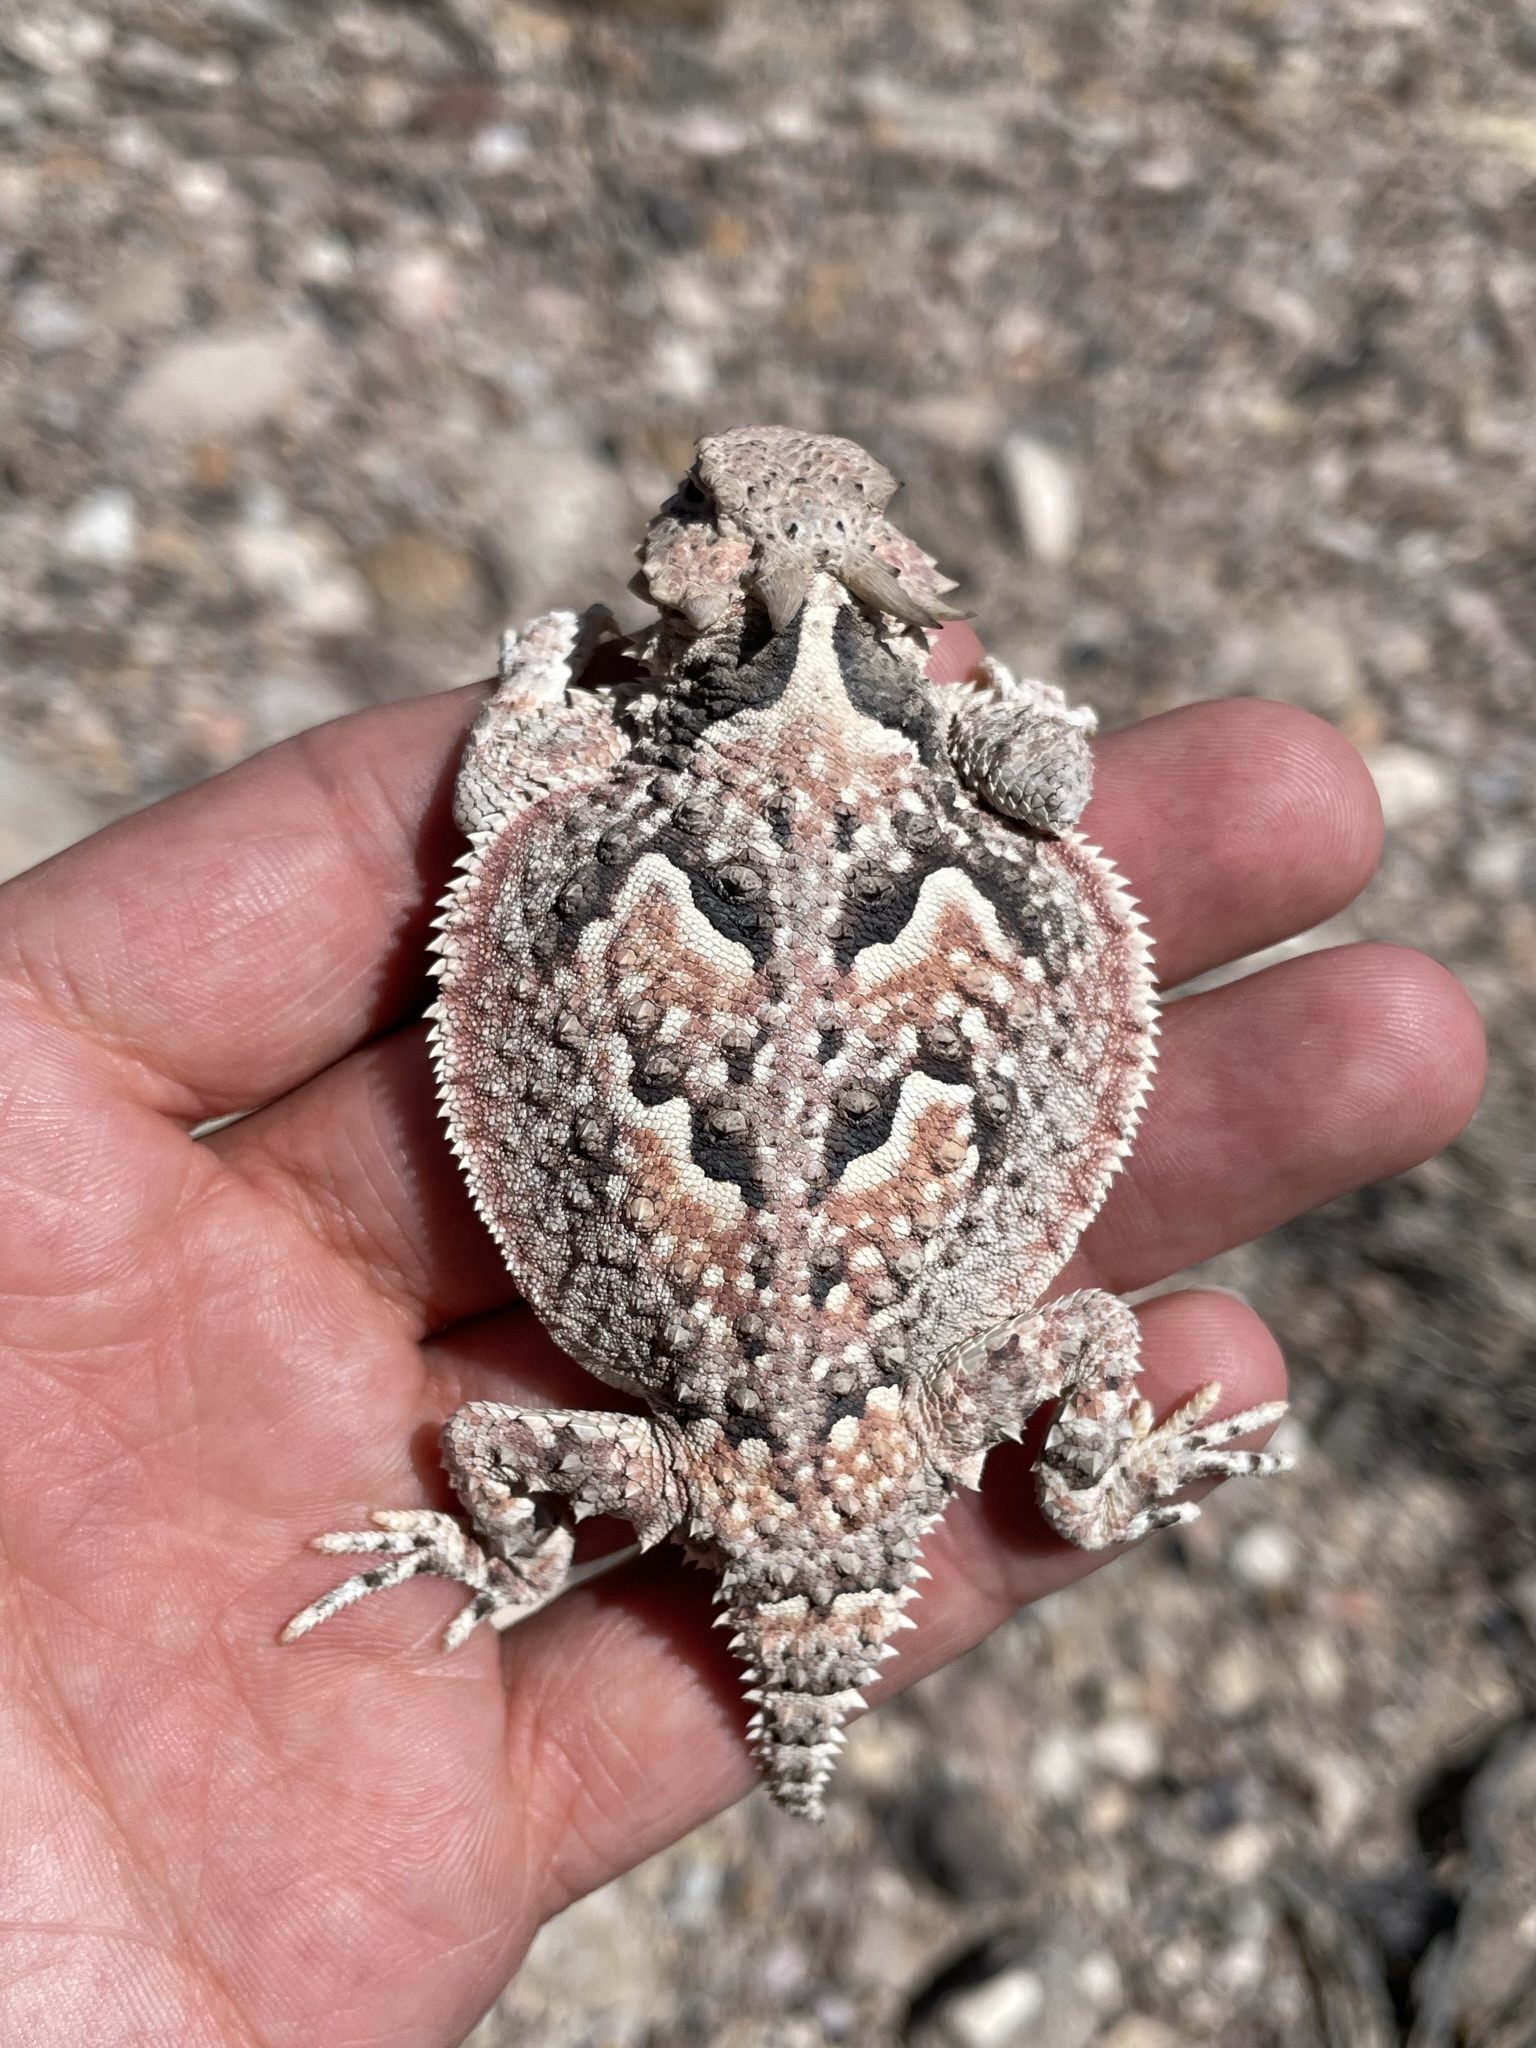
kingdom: Animalia
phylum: Chordata
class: Squamata
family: Phrynosomatidae
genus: Phrynosoma
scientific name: Phrynosoma platyrhinos
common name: Desert horned lizard
